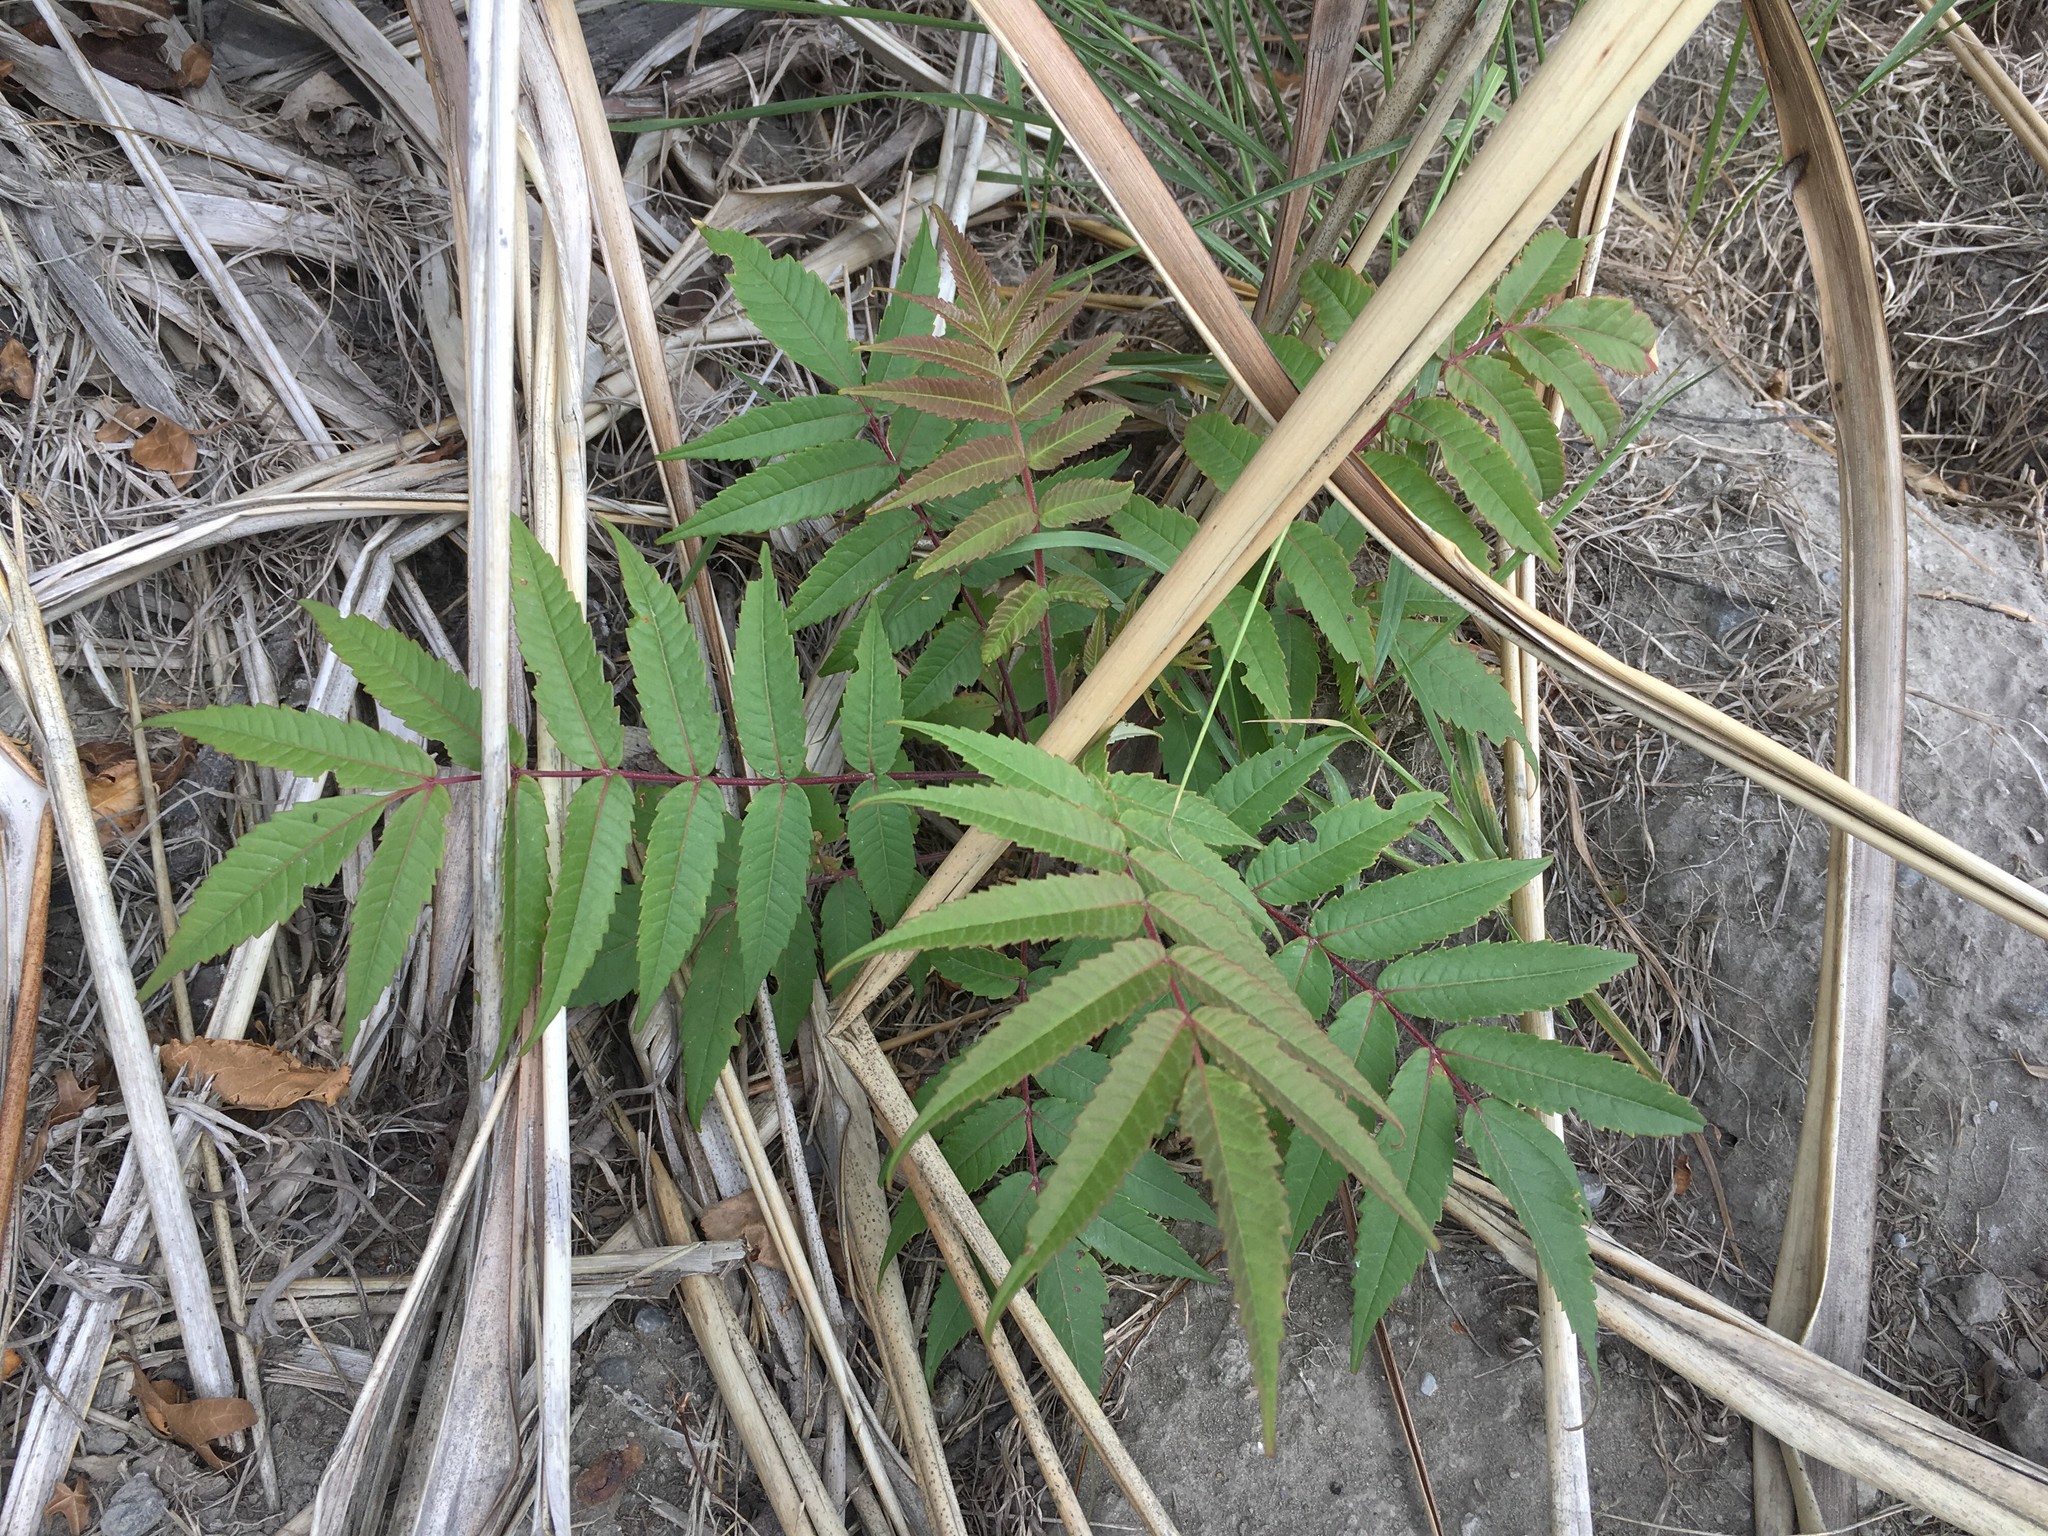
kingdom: Plantae
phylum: Tracheophyta
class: Magnoliopsida
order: Sapindales
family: Anacardiaceae
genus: Rhus
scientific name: Rhus typhina
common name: Staghorn sumac
